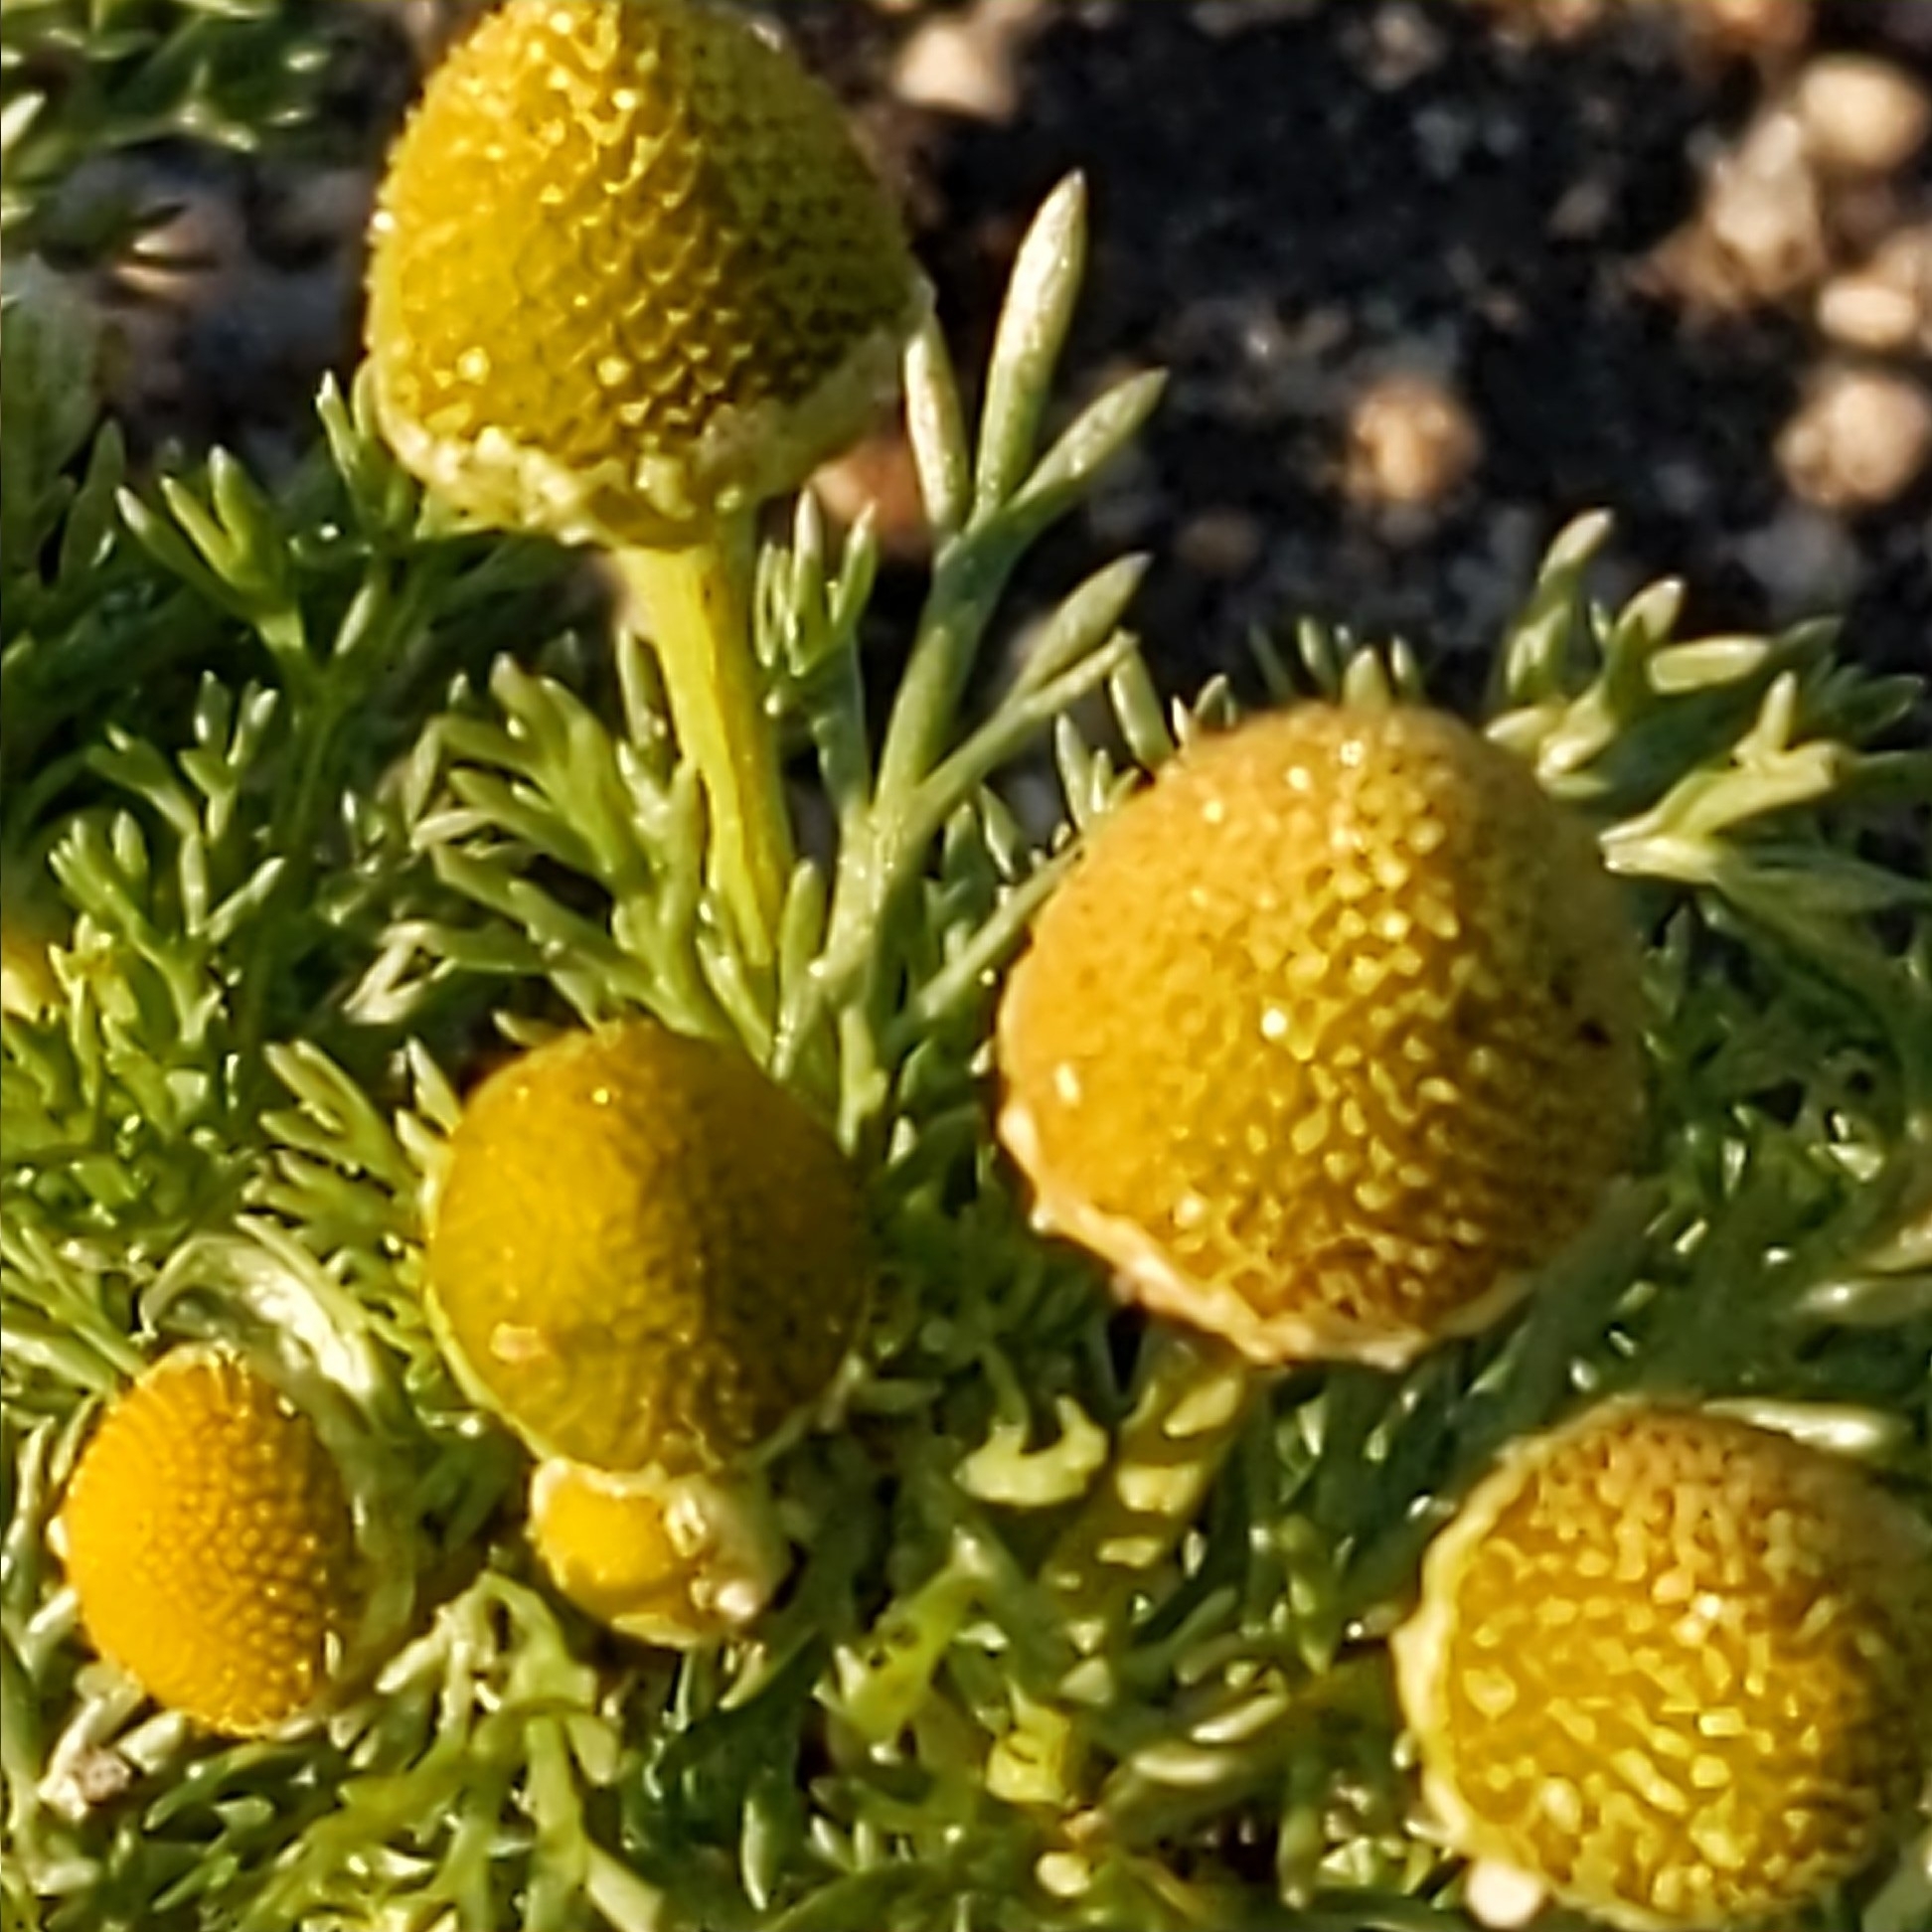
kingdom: Plantae
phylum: Tracheophyta
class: Magnoliopsida
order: Asterales
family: Asteraceae
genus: Matricaria
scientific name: Matricaria discoidea
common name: Disc mayweed
